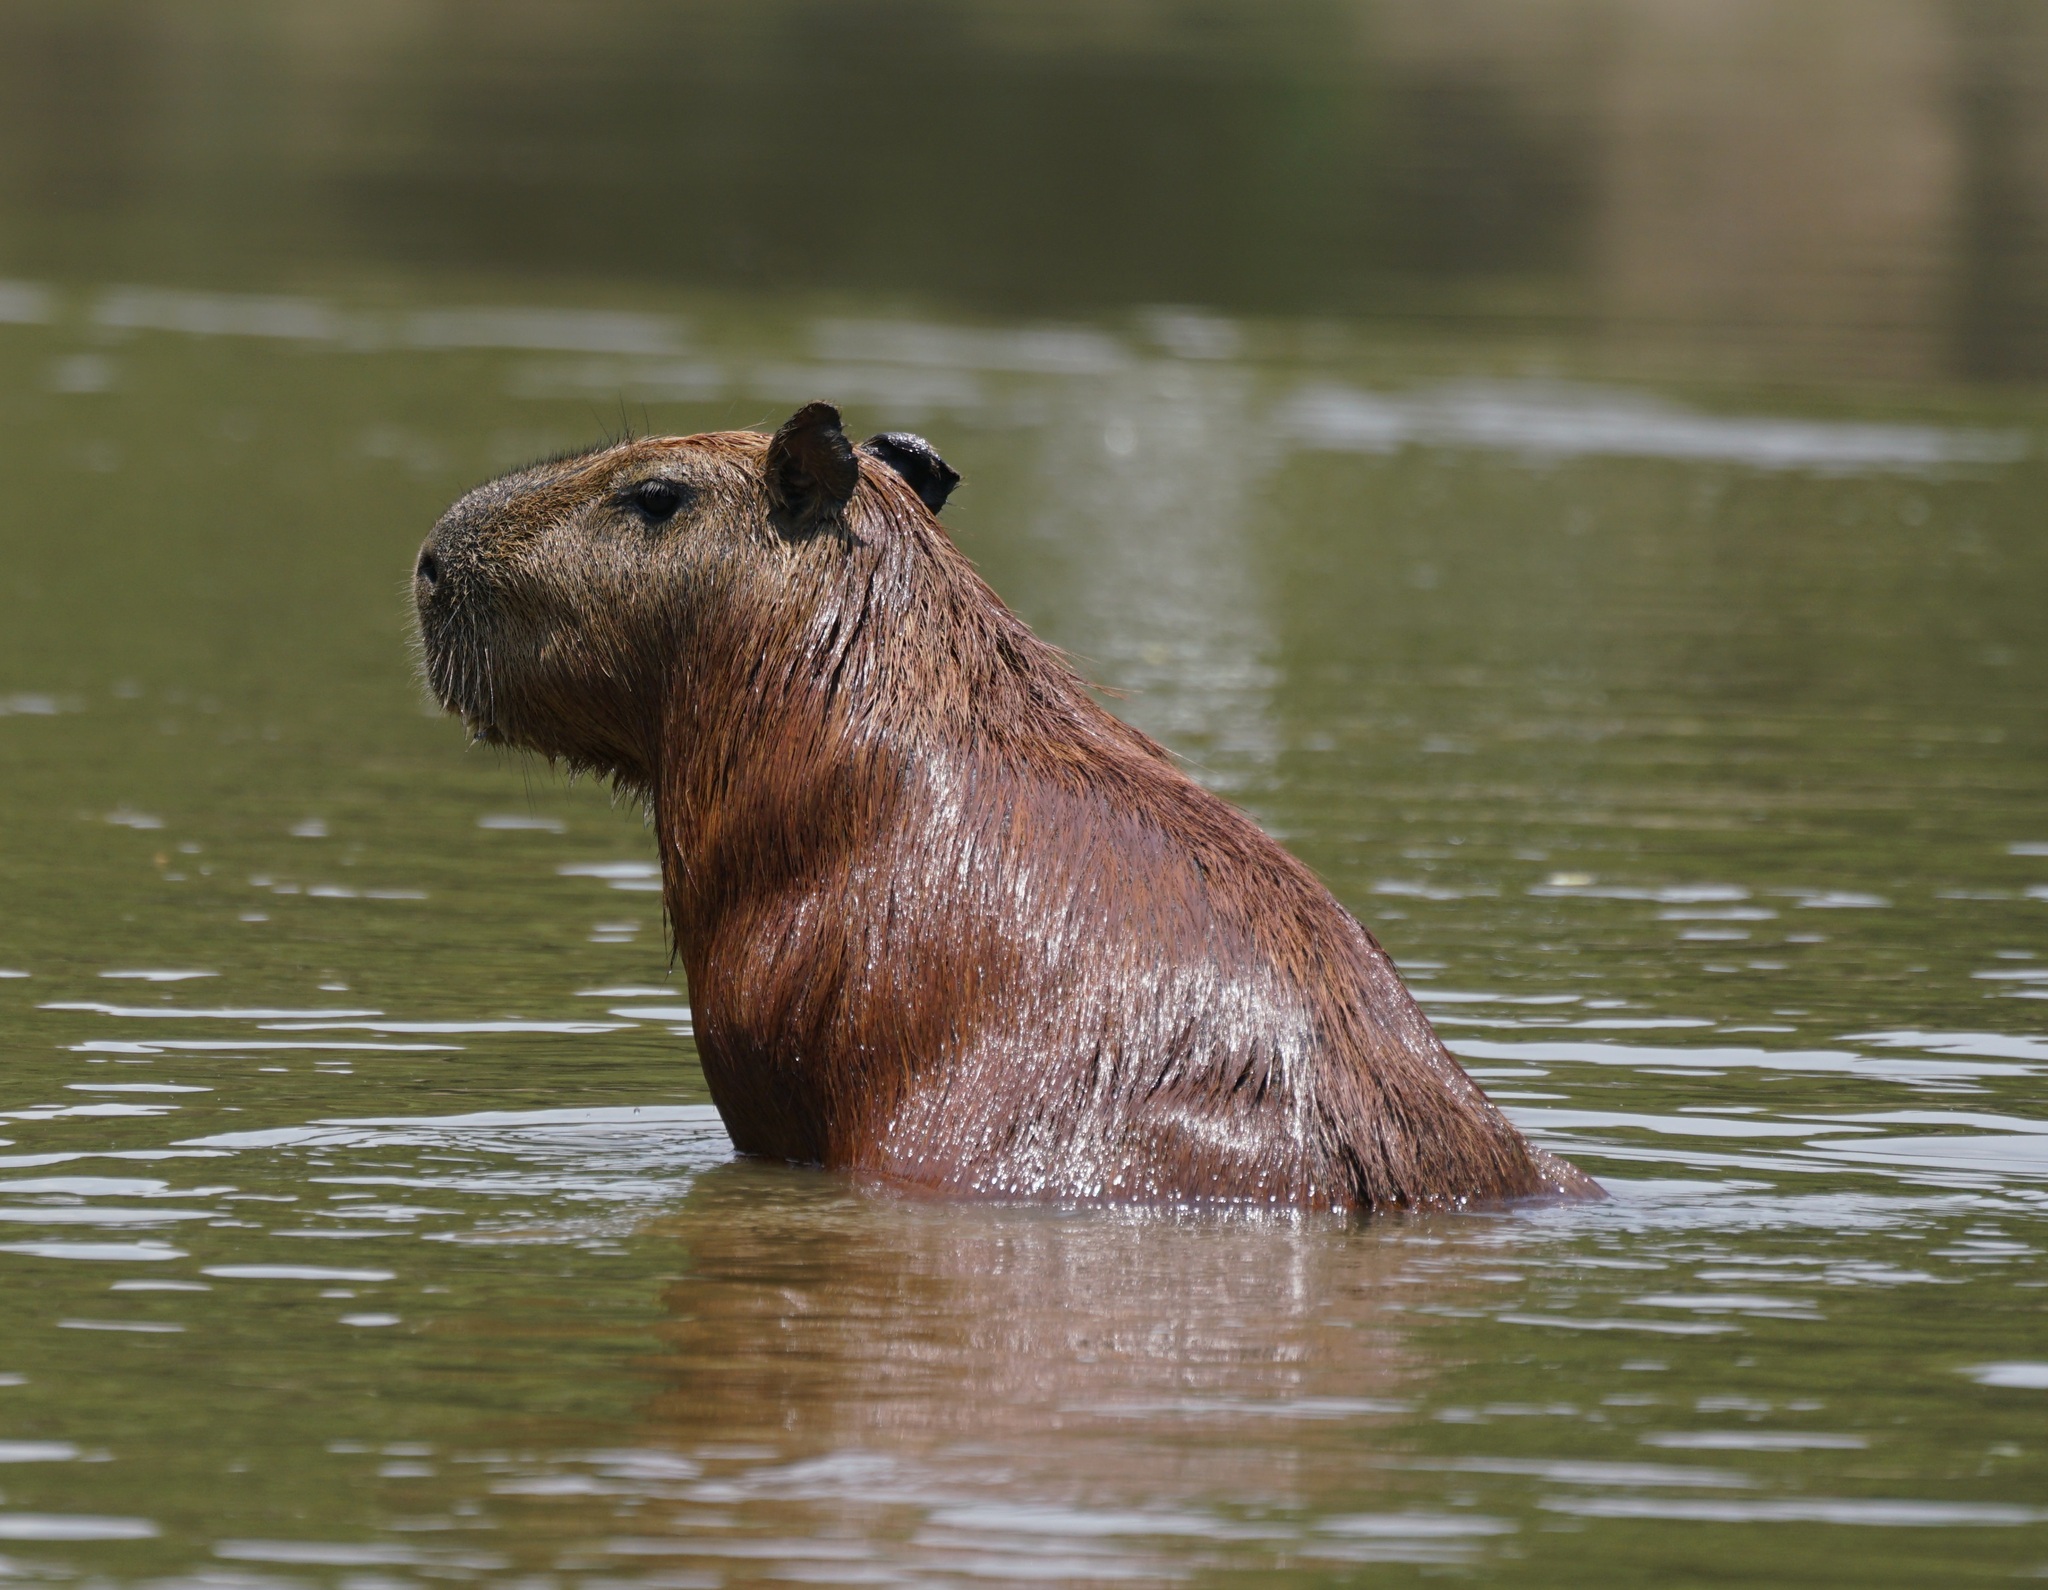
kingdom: Animalia
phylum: Chordata
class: Mammalia
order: Rodentia
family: Caviidae
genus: Hydrochoerus
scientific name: Hydrochoerus hydrochaeris
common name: Capybara
